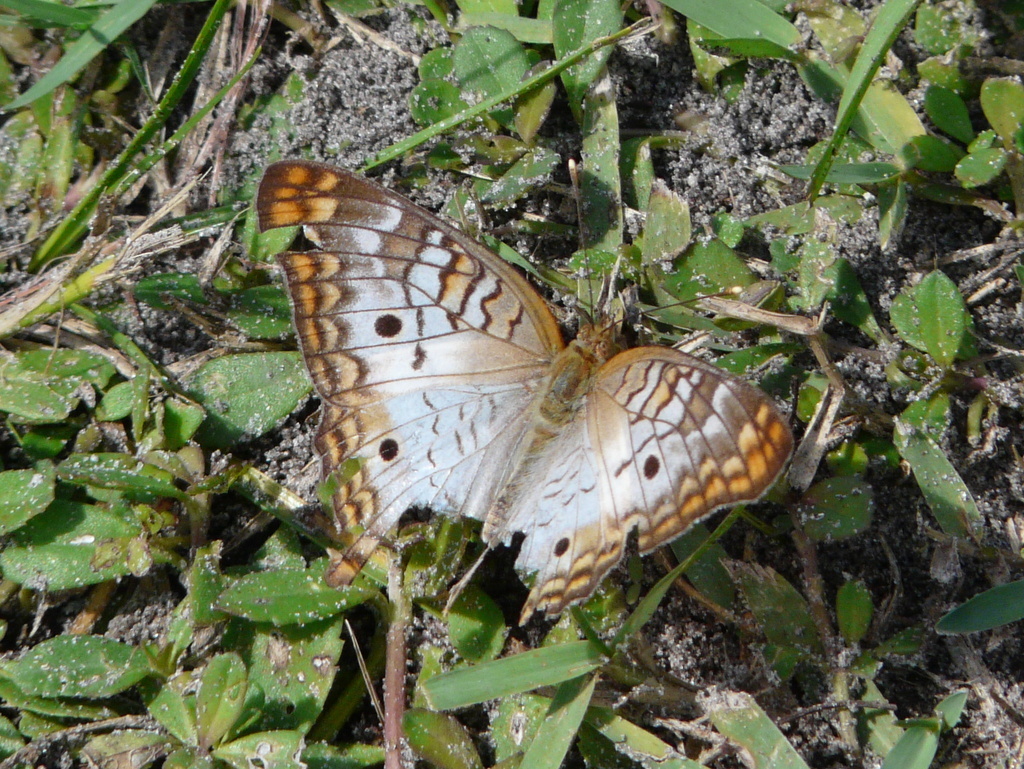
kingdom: Animalia
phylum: Arthropoda
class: Insecta
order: Lepidoptera
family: Nymphalidae
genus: Anartia
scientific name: Anartia jatrophae
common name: White peacock
